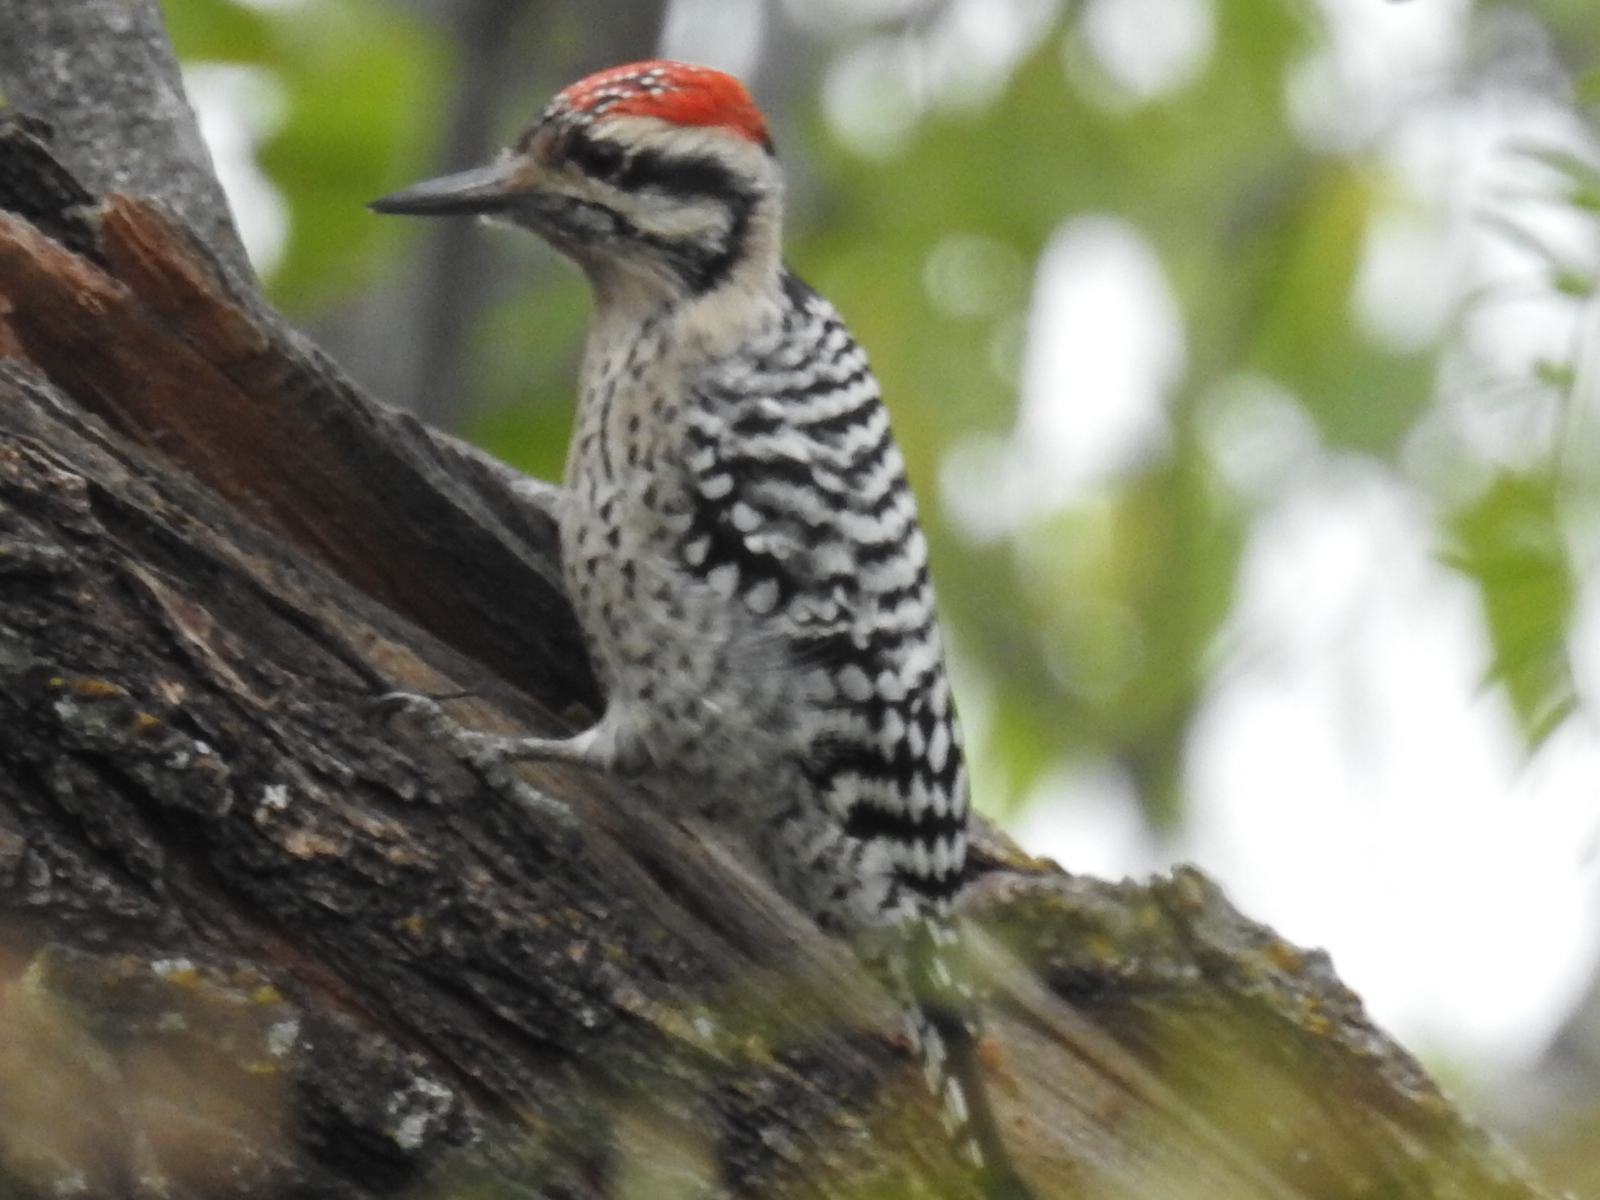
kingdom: Animalia
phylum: Chordata
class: Aves
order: Piciformes
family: Picidae
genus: Dryobates
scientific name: Dryobates scalaris
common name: Ladder-backed woodpecker
